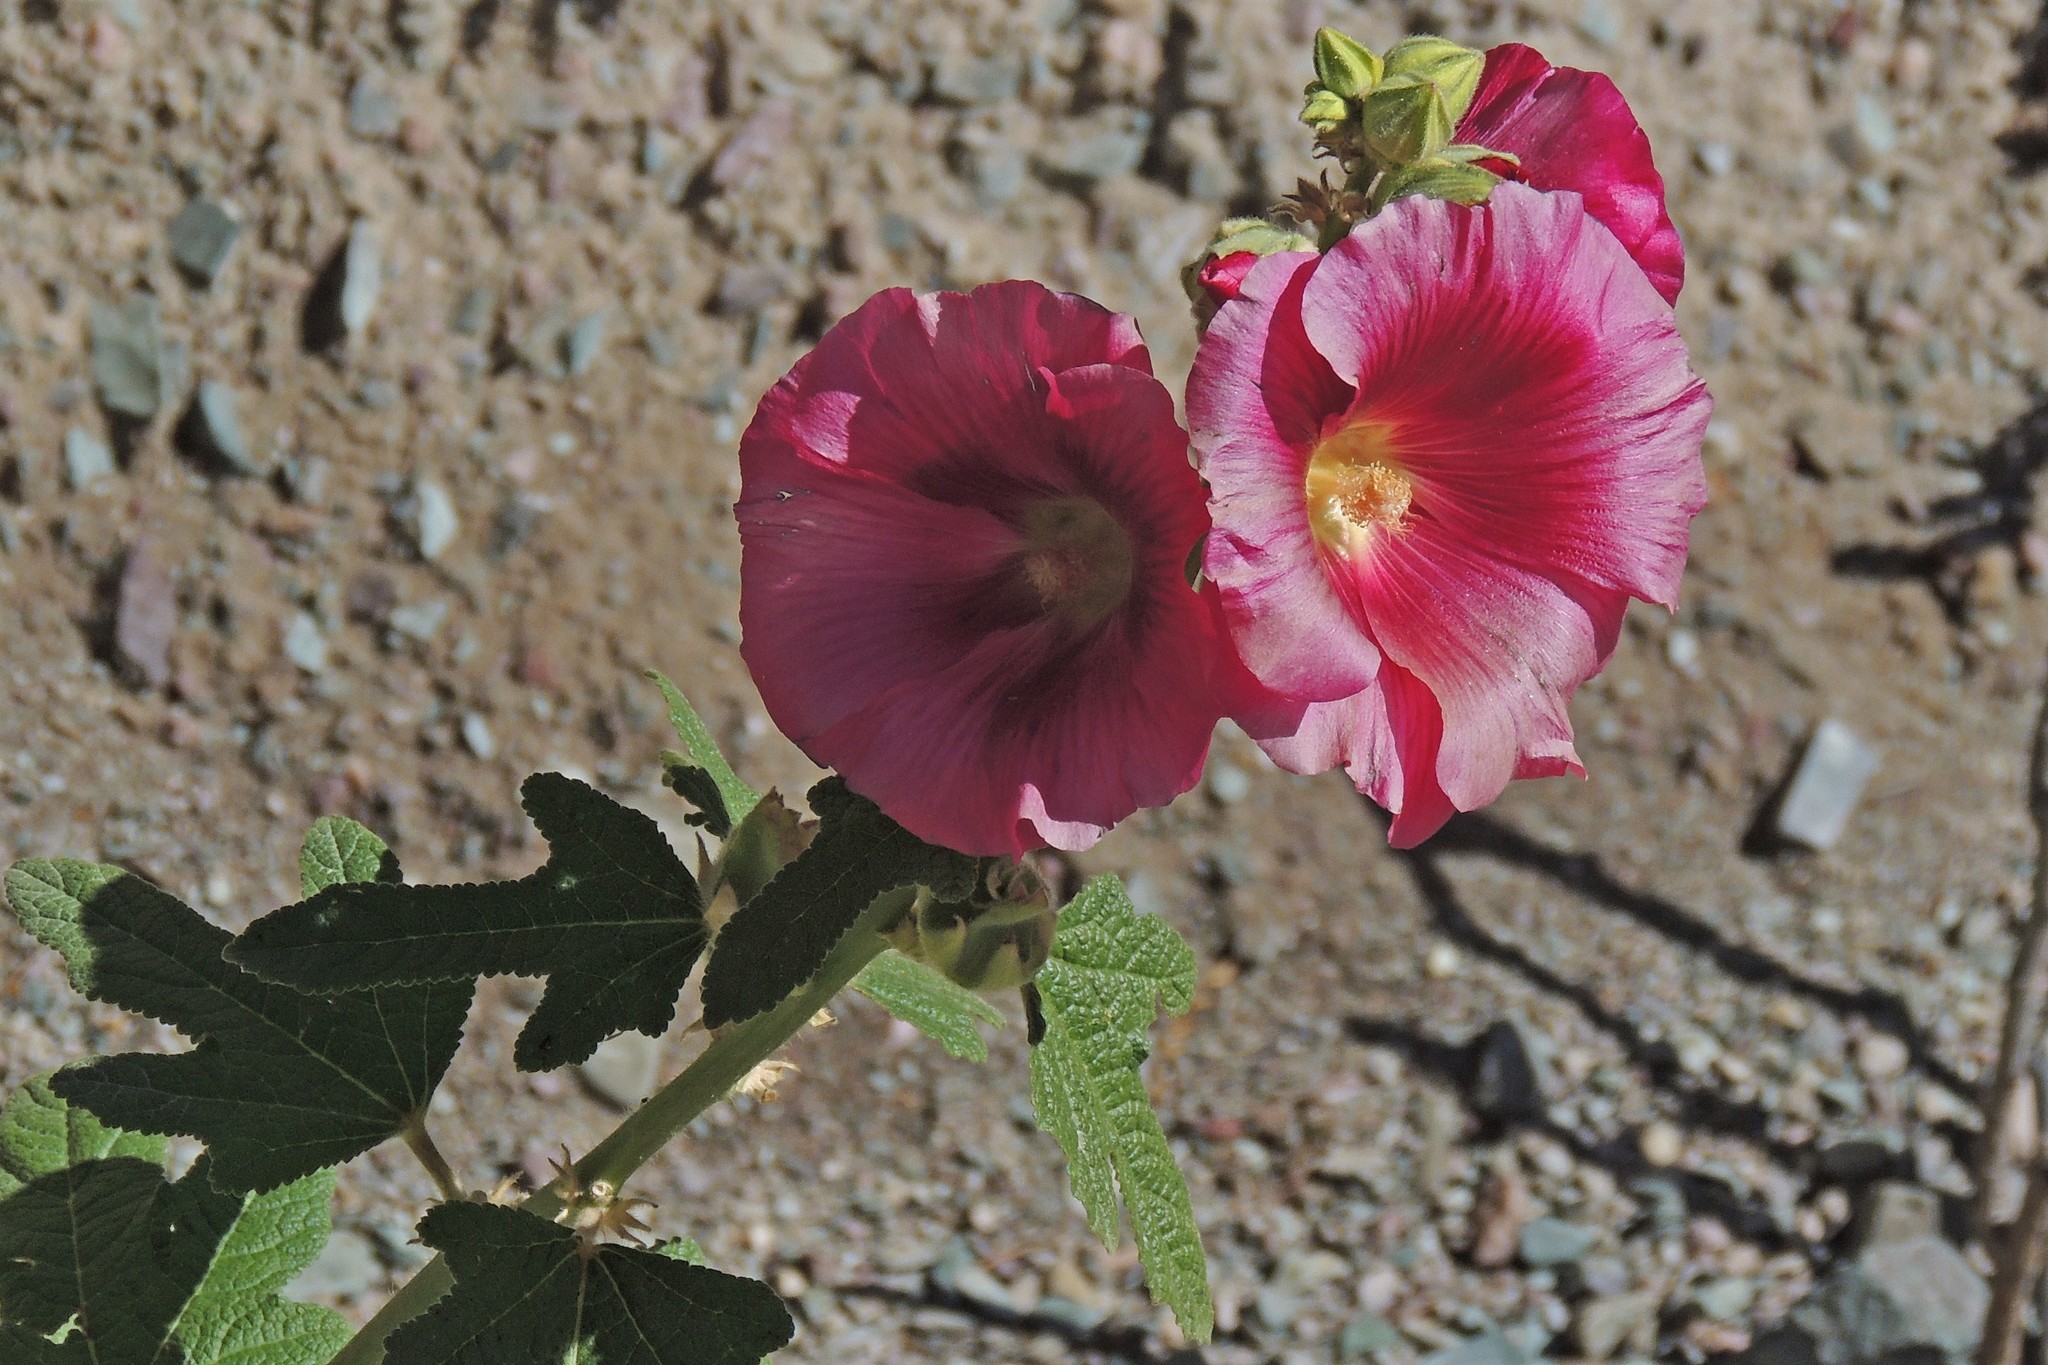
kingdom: Plantae
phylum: Tracheophyta
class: Magnoliopsida
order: Malvales
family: Malvaceae
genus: Alcea
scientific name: Alcea rosea
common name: Hollyhock
